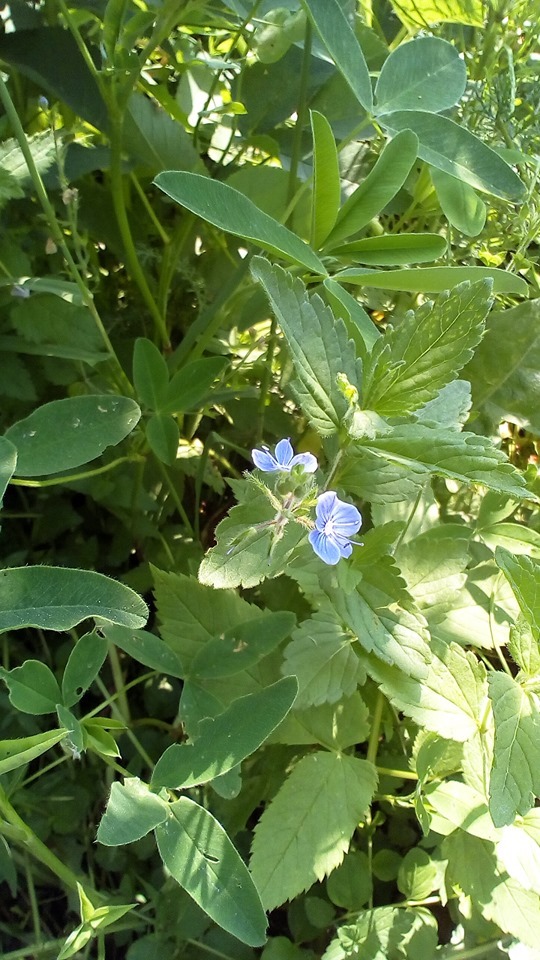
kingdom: Plantae
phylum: Tracheophyta
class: Magnoliopsida
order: Lamiales
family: Plantaginaceae
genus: Veronica
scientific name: Veronica chamaedrys
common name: Germander speedwell
